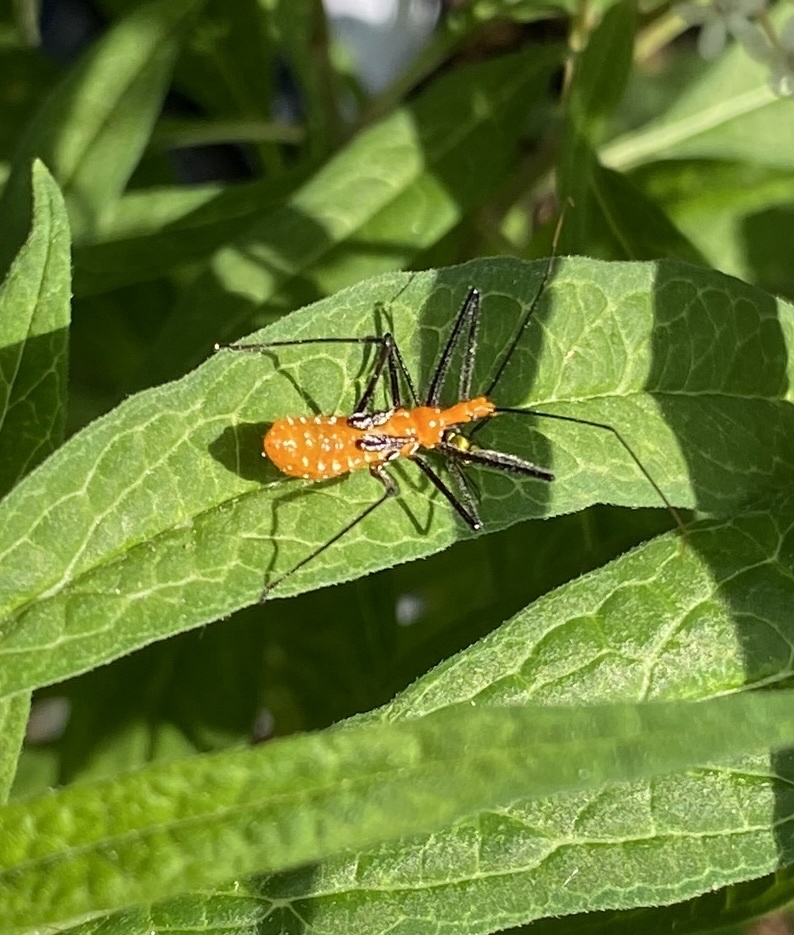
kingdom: Animalia
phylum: Arthropoda
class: Insecta
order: Hemiptera
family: Reduviidae
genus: Zelus
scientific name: Zelus longipes
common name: Milkweed assassin bug
